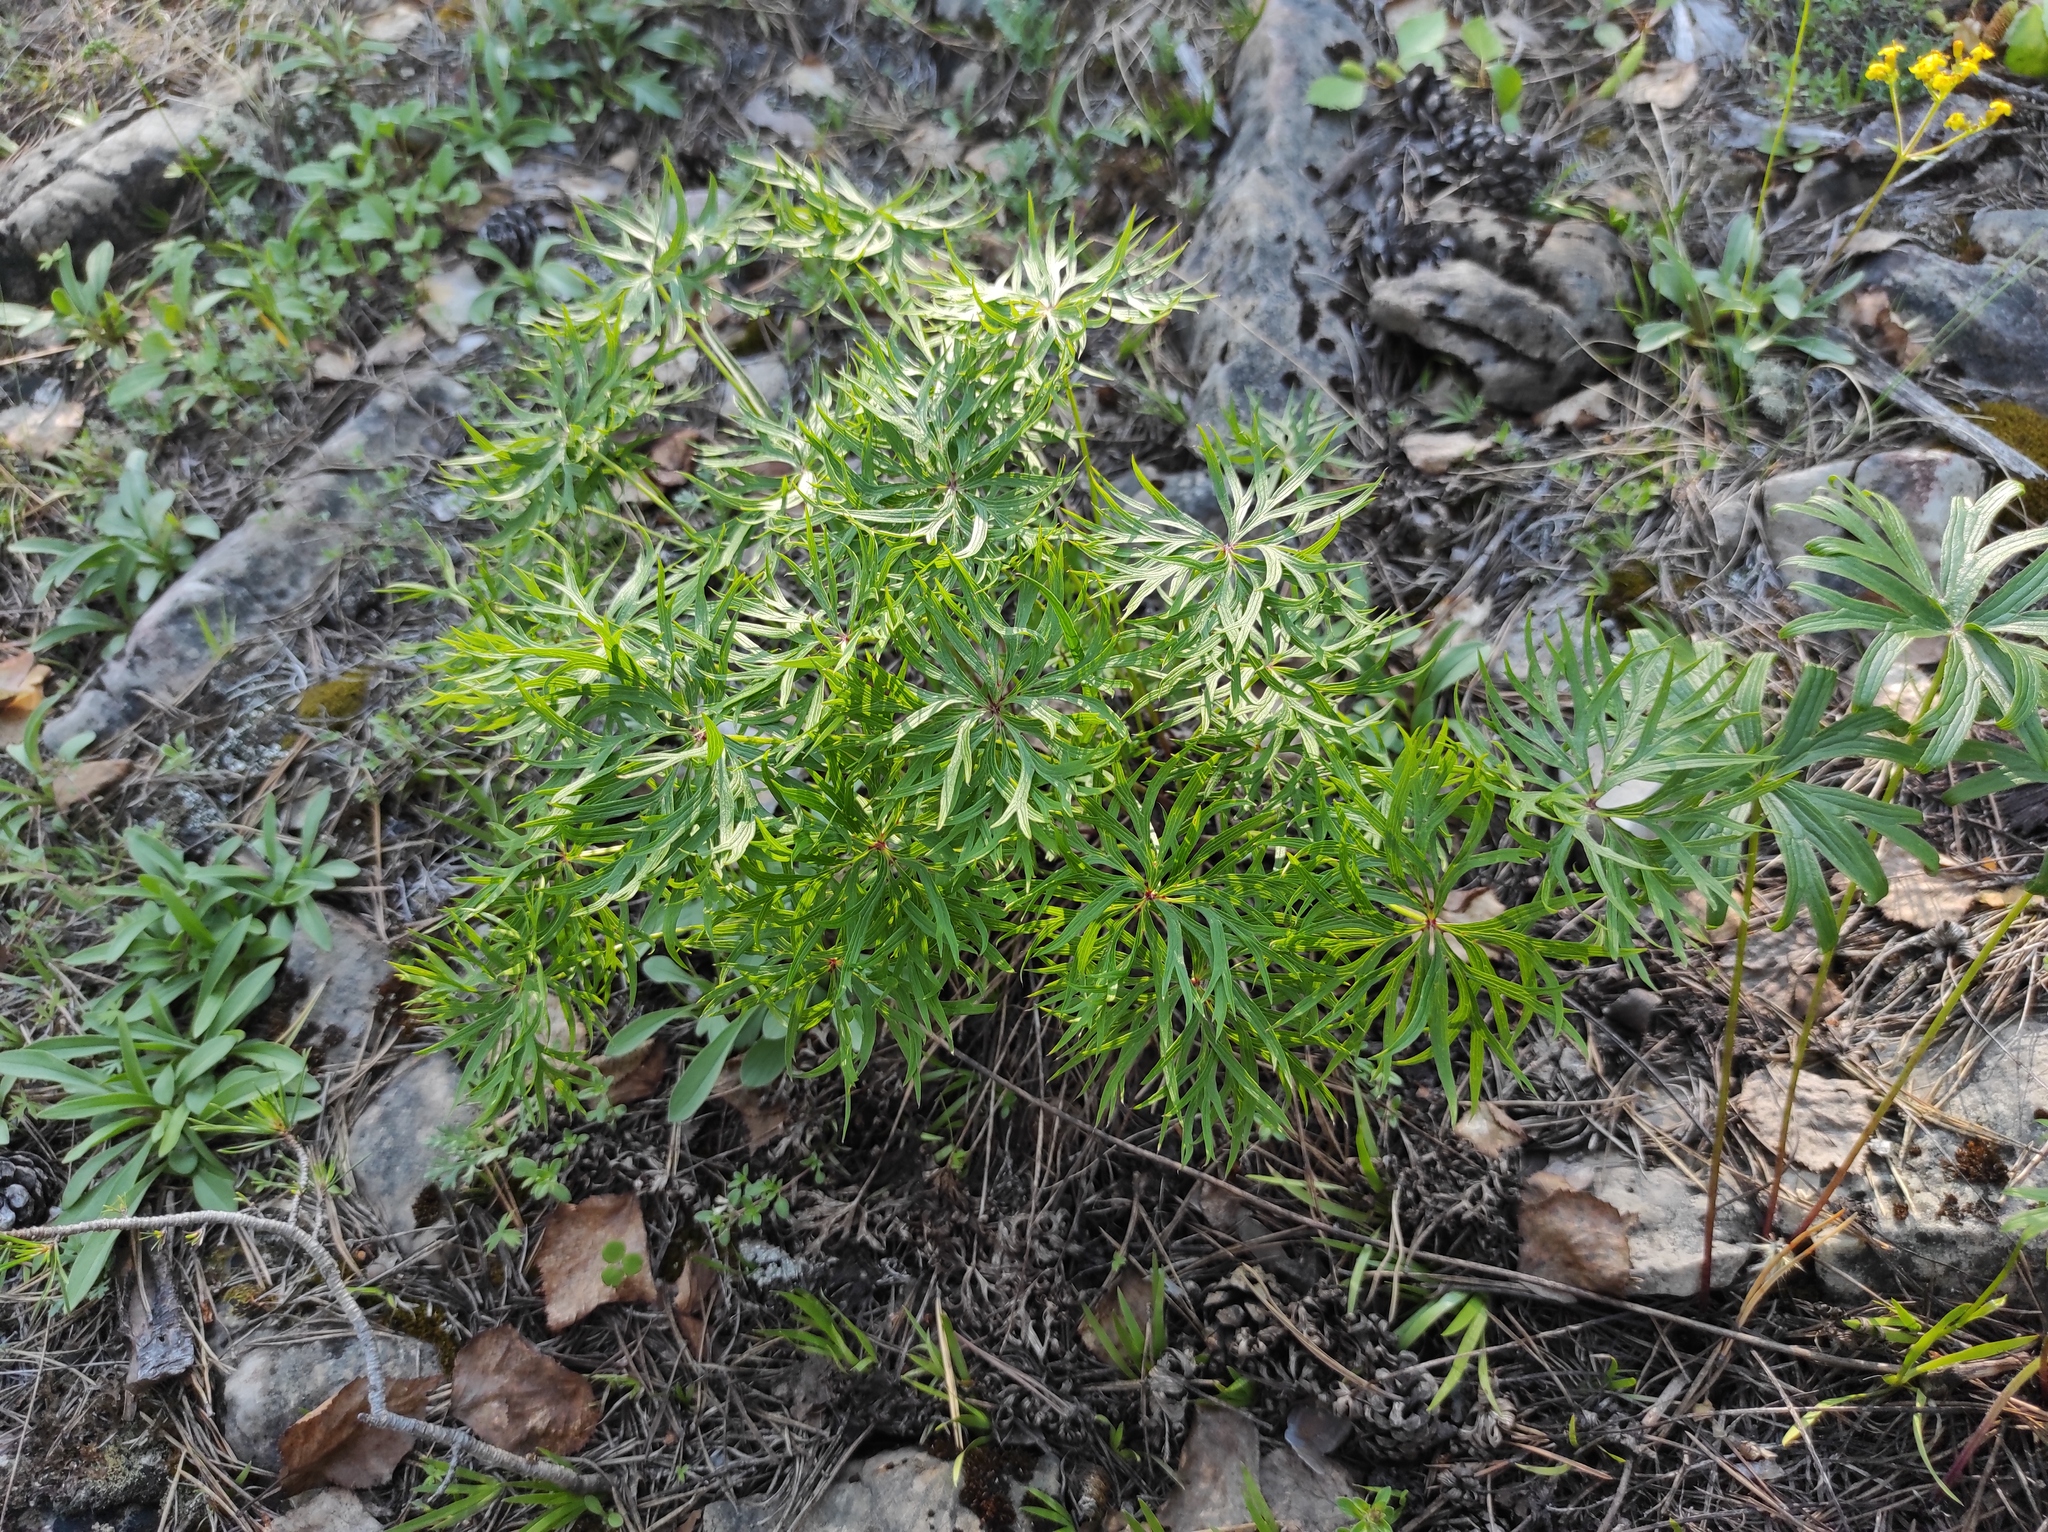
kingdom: Plantae
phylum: Tracheophyta
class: Magnoliopsida
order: Ranunculales
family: Ranunculaceae
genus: Pulsatilla
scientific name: Pulsatilla patens
